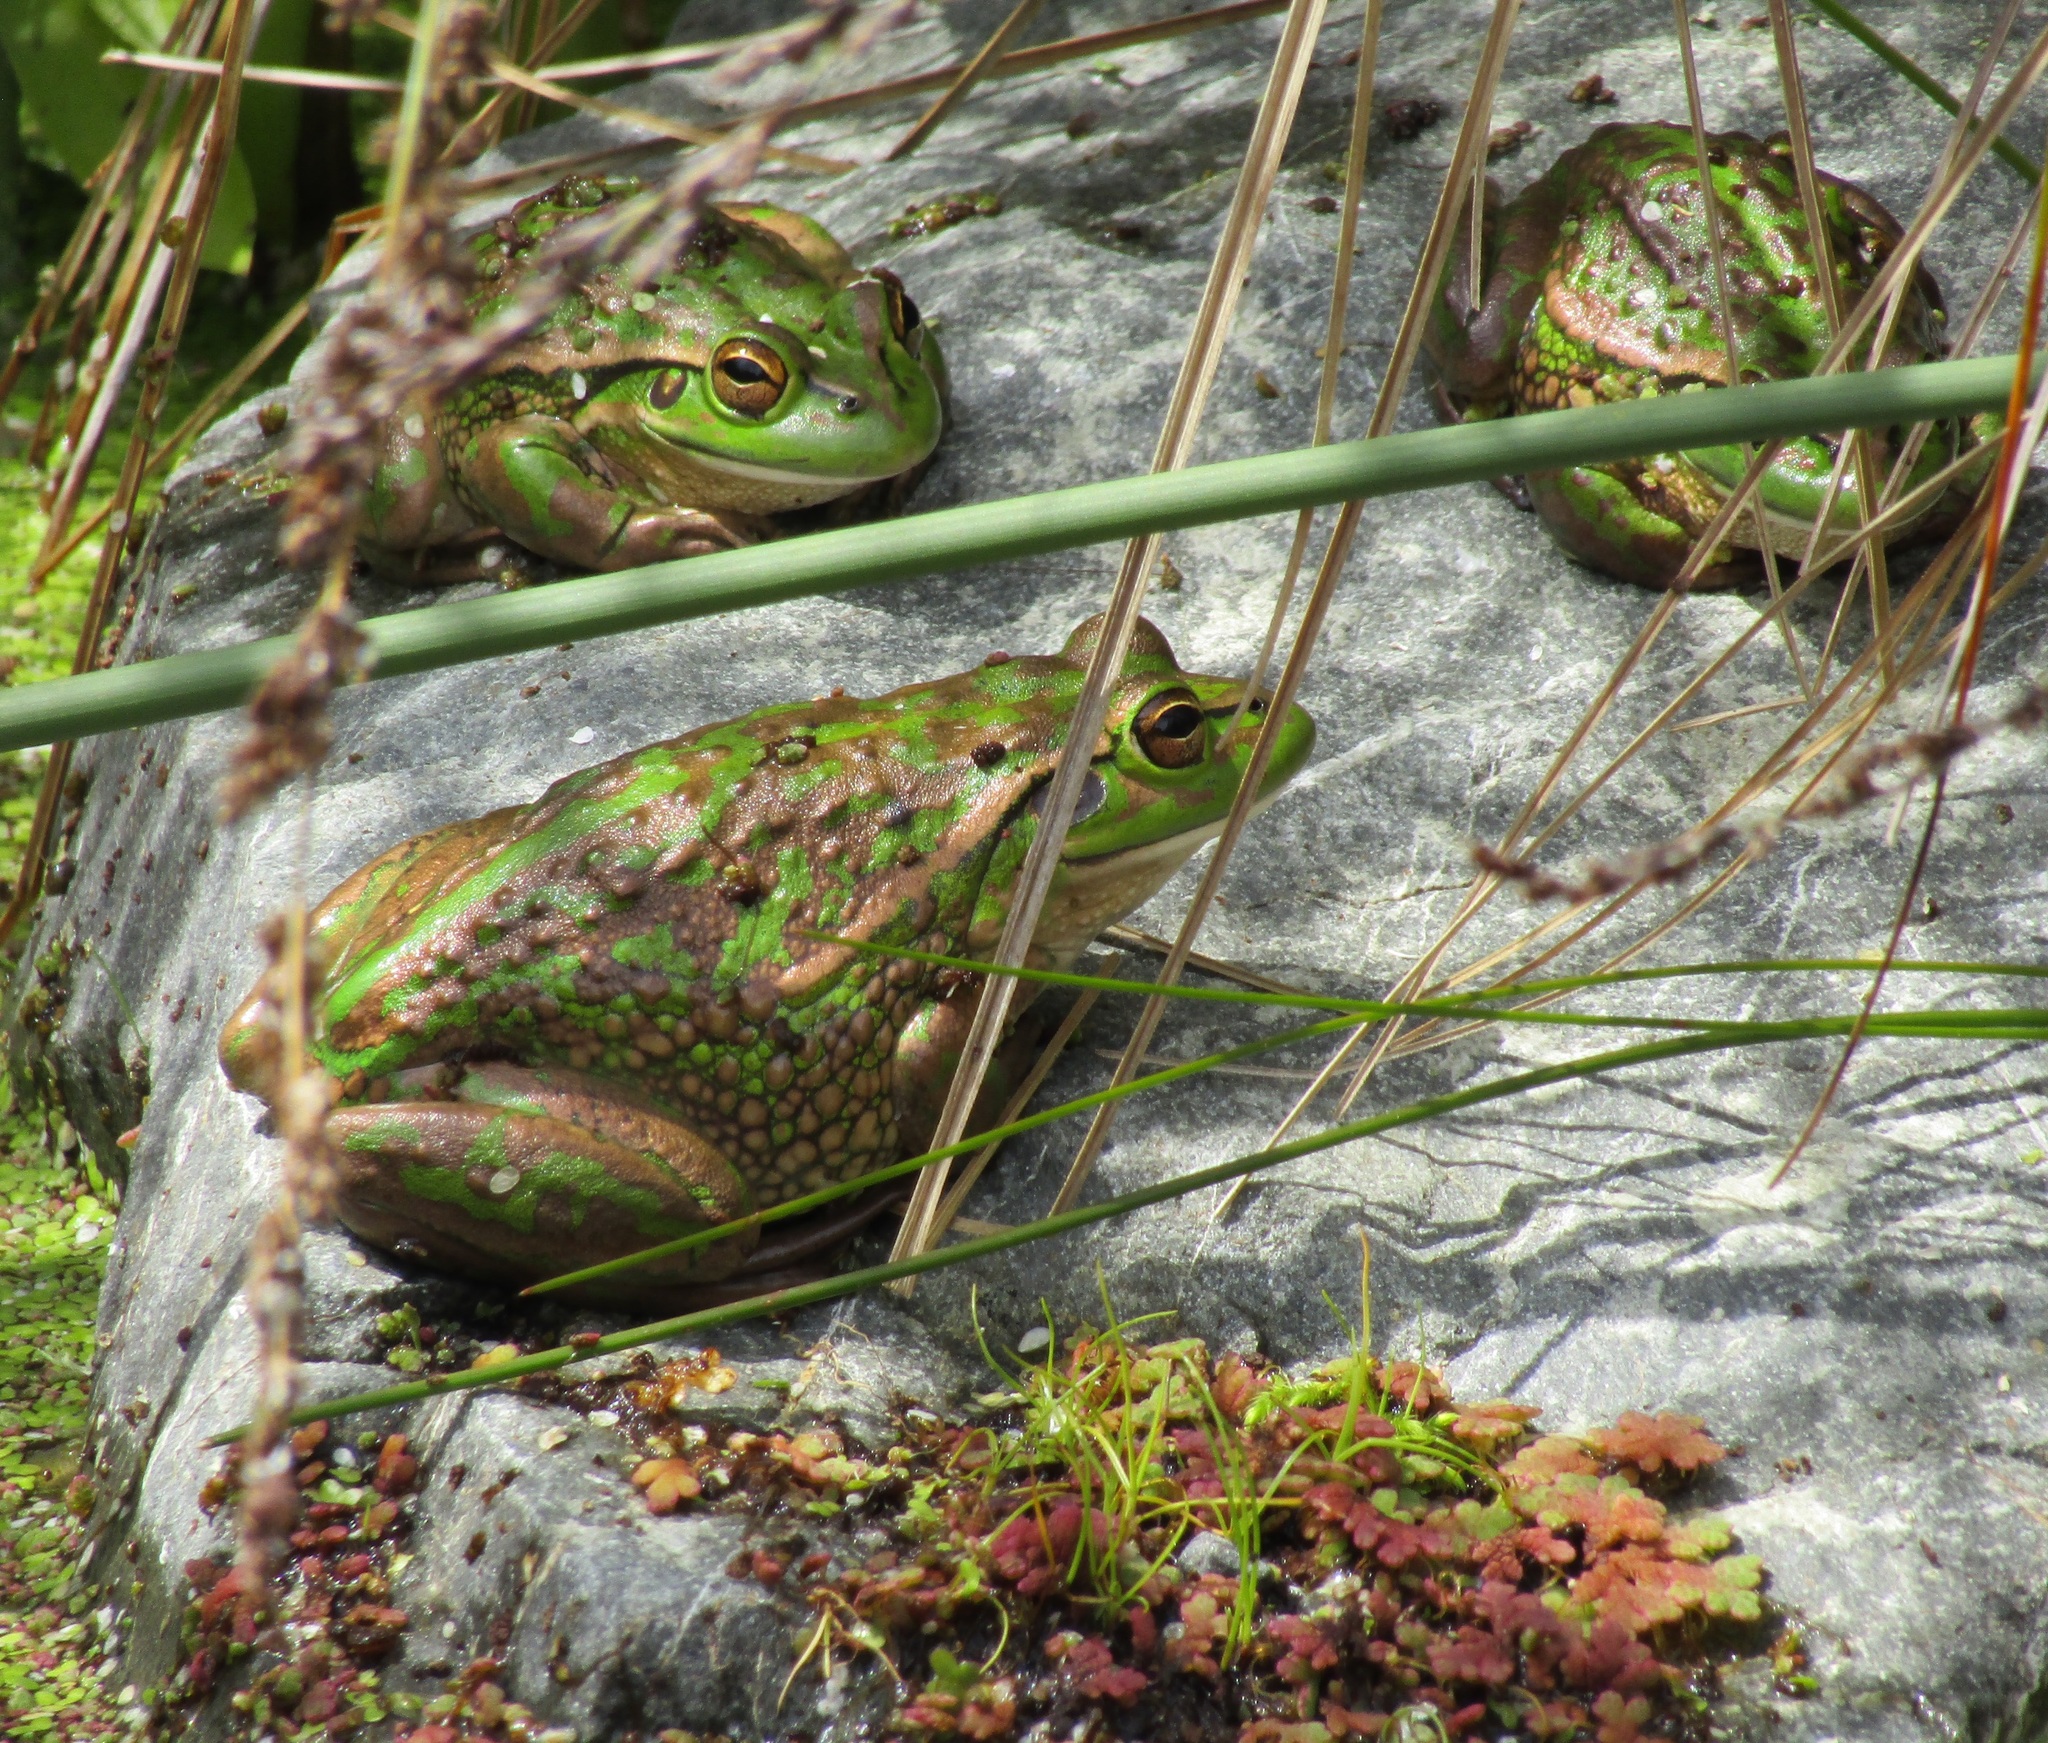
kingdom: Animalia
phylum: Chordata
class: Amphibia
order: Anura
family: Pelodryadidae
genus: Ranoidea
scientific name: Ranoidea raniformis
